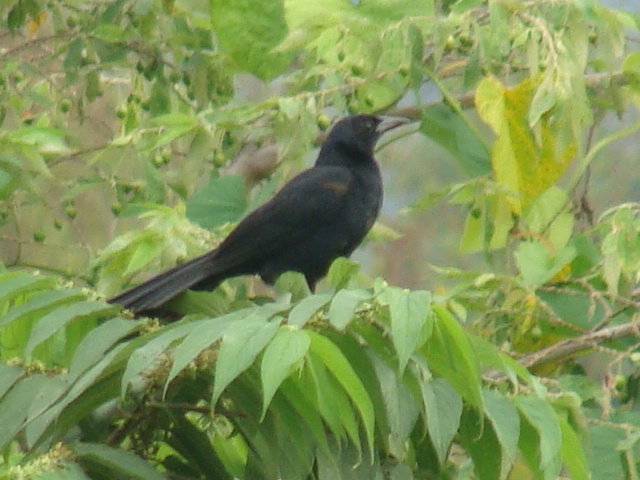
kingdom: Animalia
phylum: Chordata
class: Aves
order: Passeriformes
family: Icteridae
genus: Dives
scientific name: Dives dives
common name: Melodious blackbird
